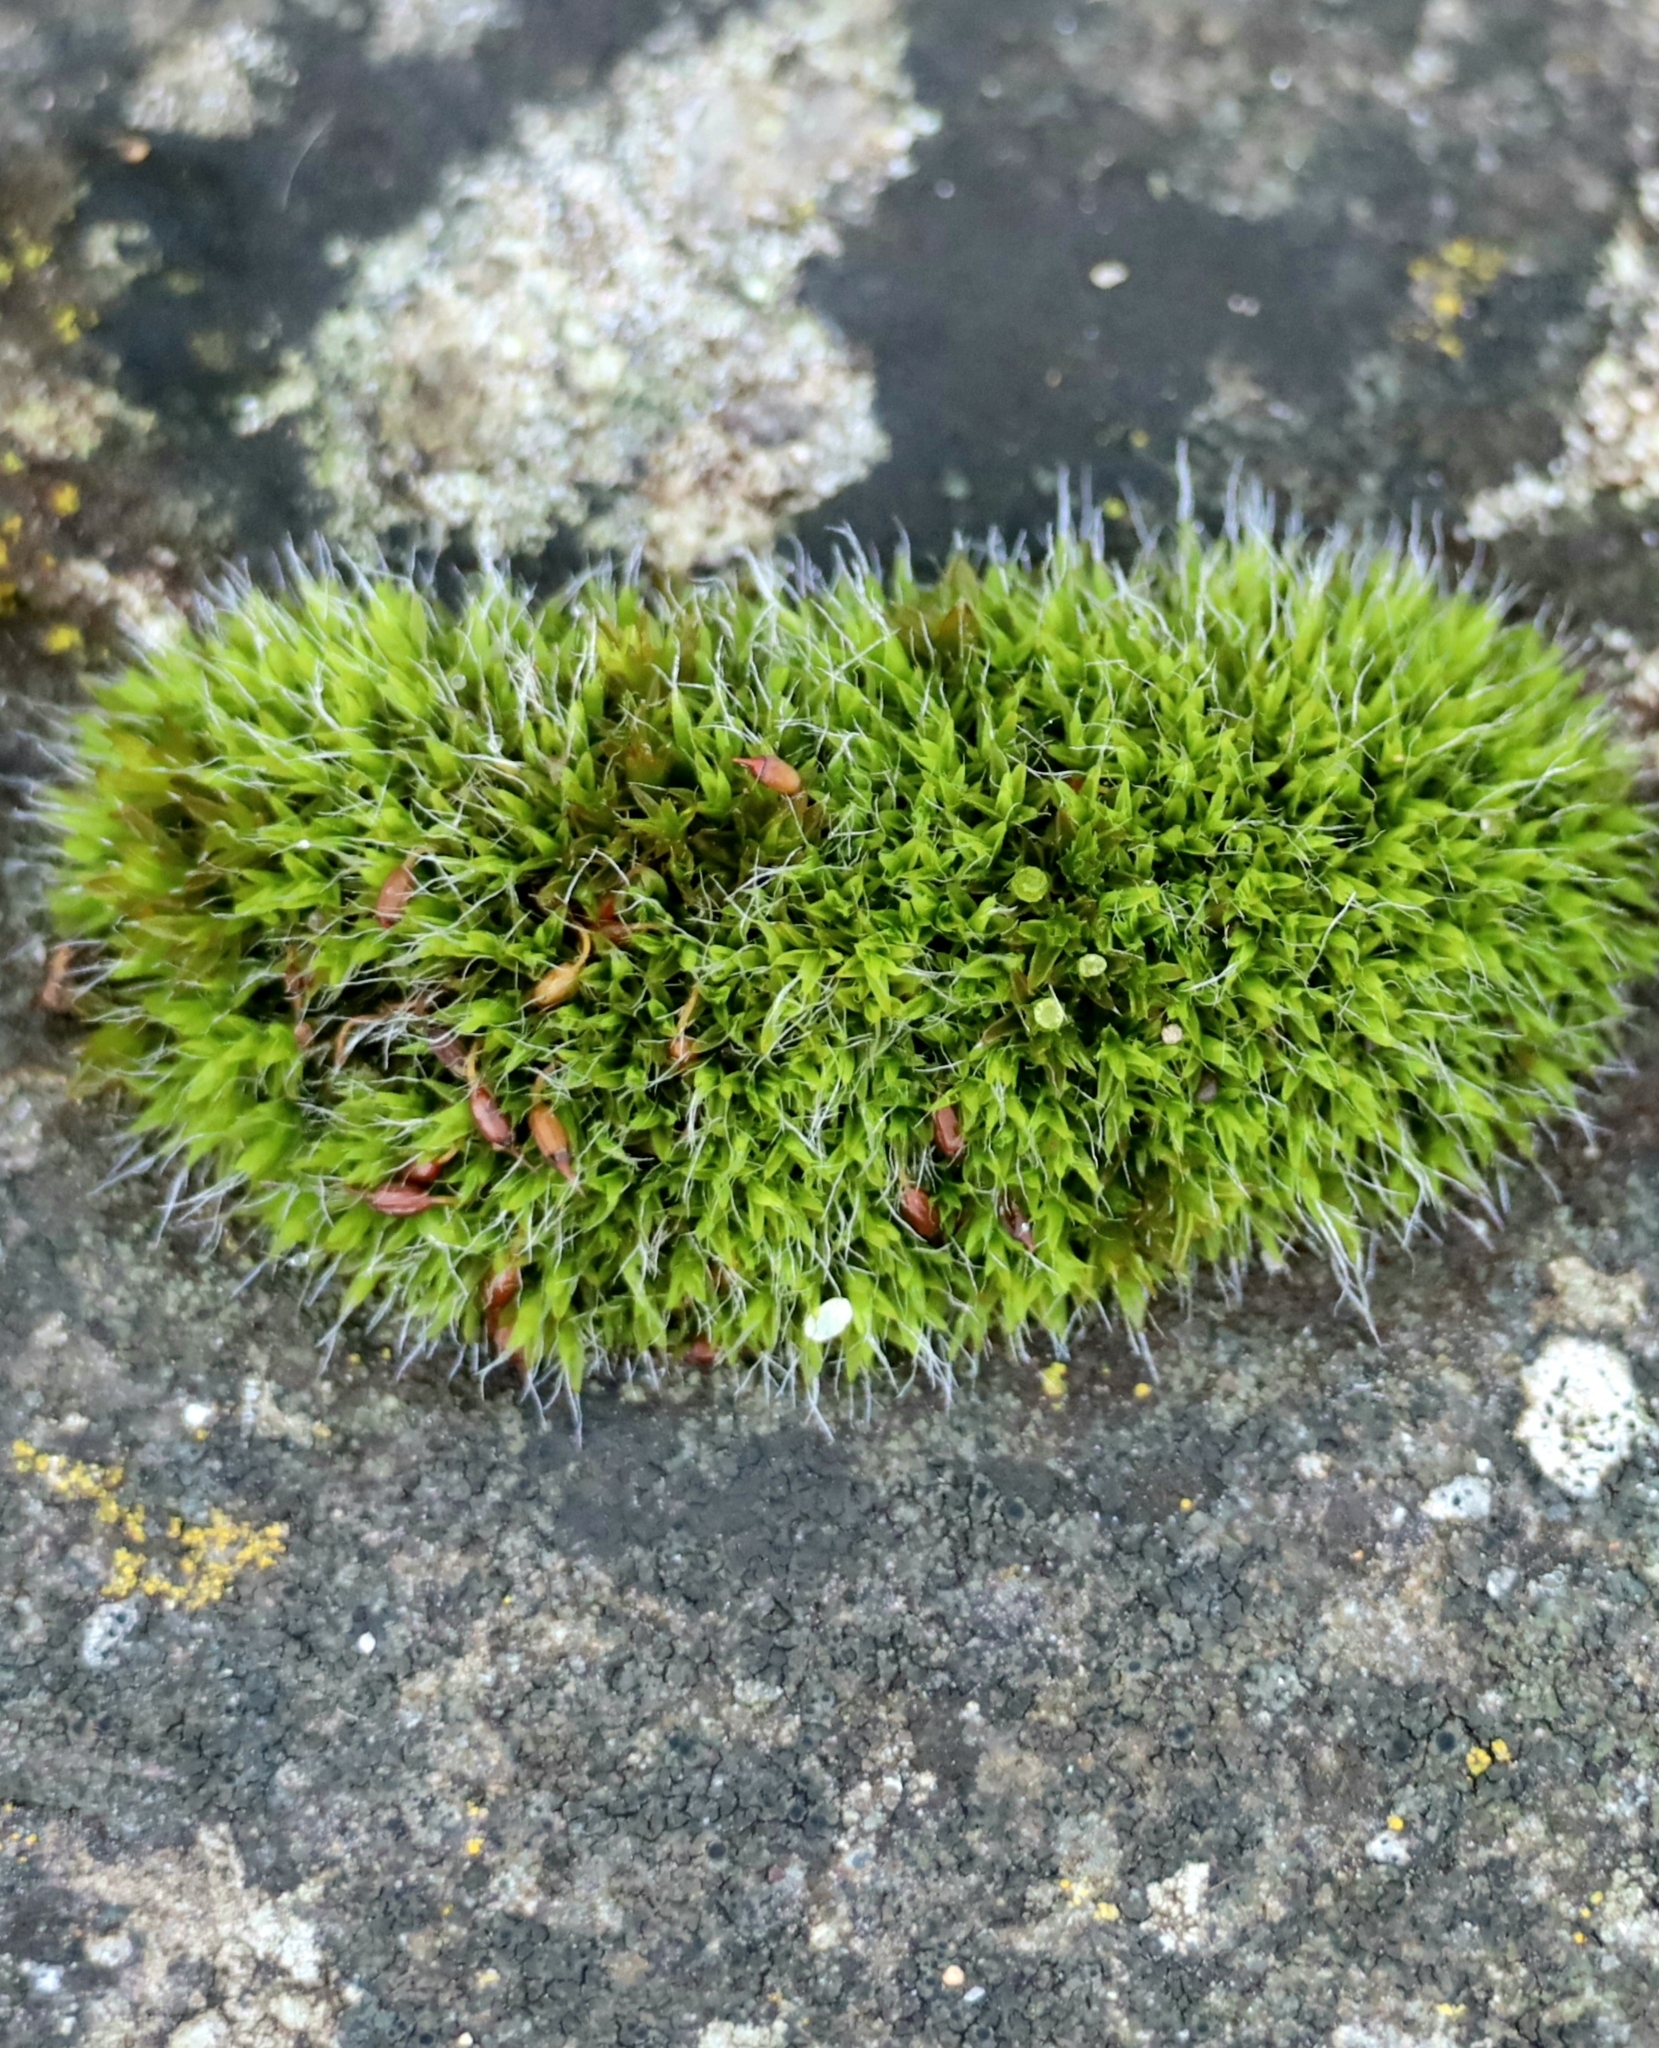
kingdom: Plantae
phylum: Bryophyta
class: Bryopsida
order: Grimmiales
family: Grimmiaceae
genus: Grimmia
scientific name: Grimmia pulvinata
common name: Grey-cushioned grimmia
